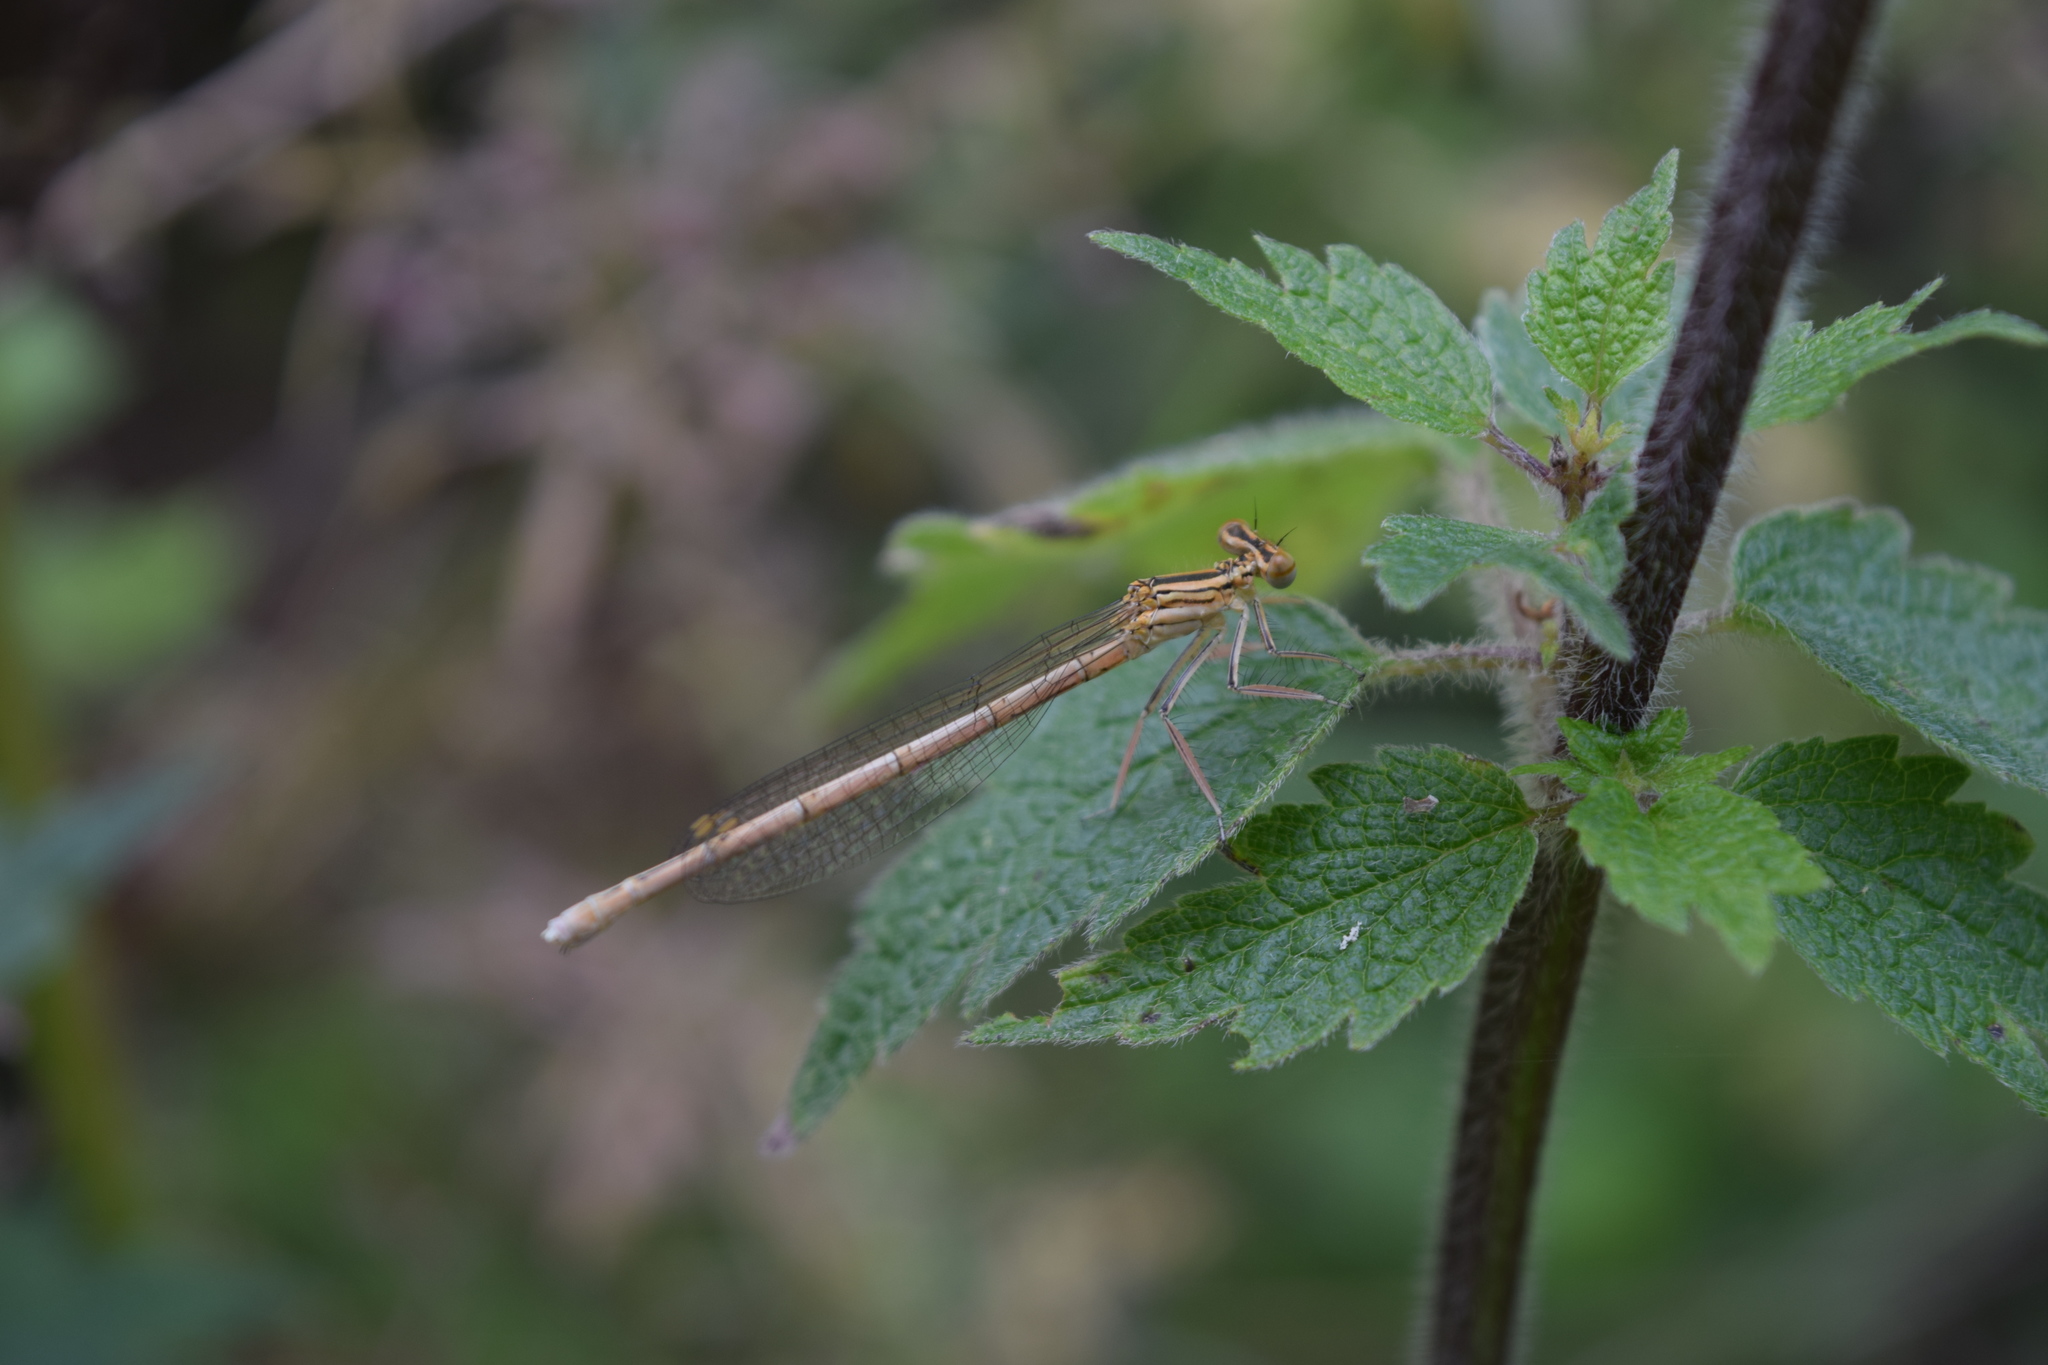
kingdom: Animalia
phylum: Arthropoda
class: Insecta
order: Odonata
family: Platycnemididae
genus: Platycnemis
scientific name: Platycnemis pennipes
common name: White-legged damselfly
